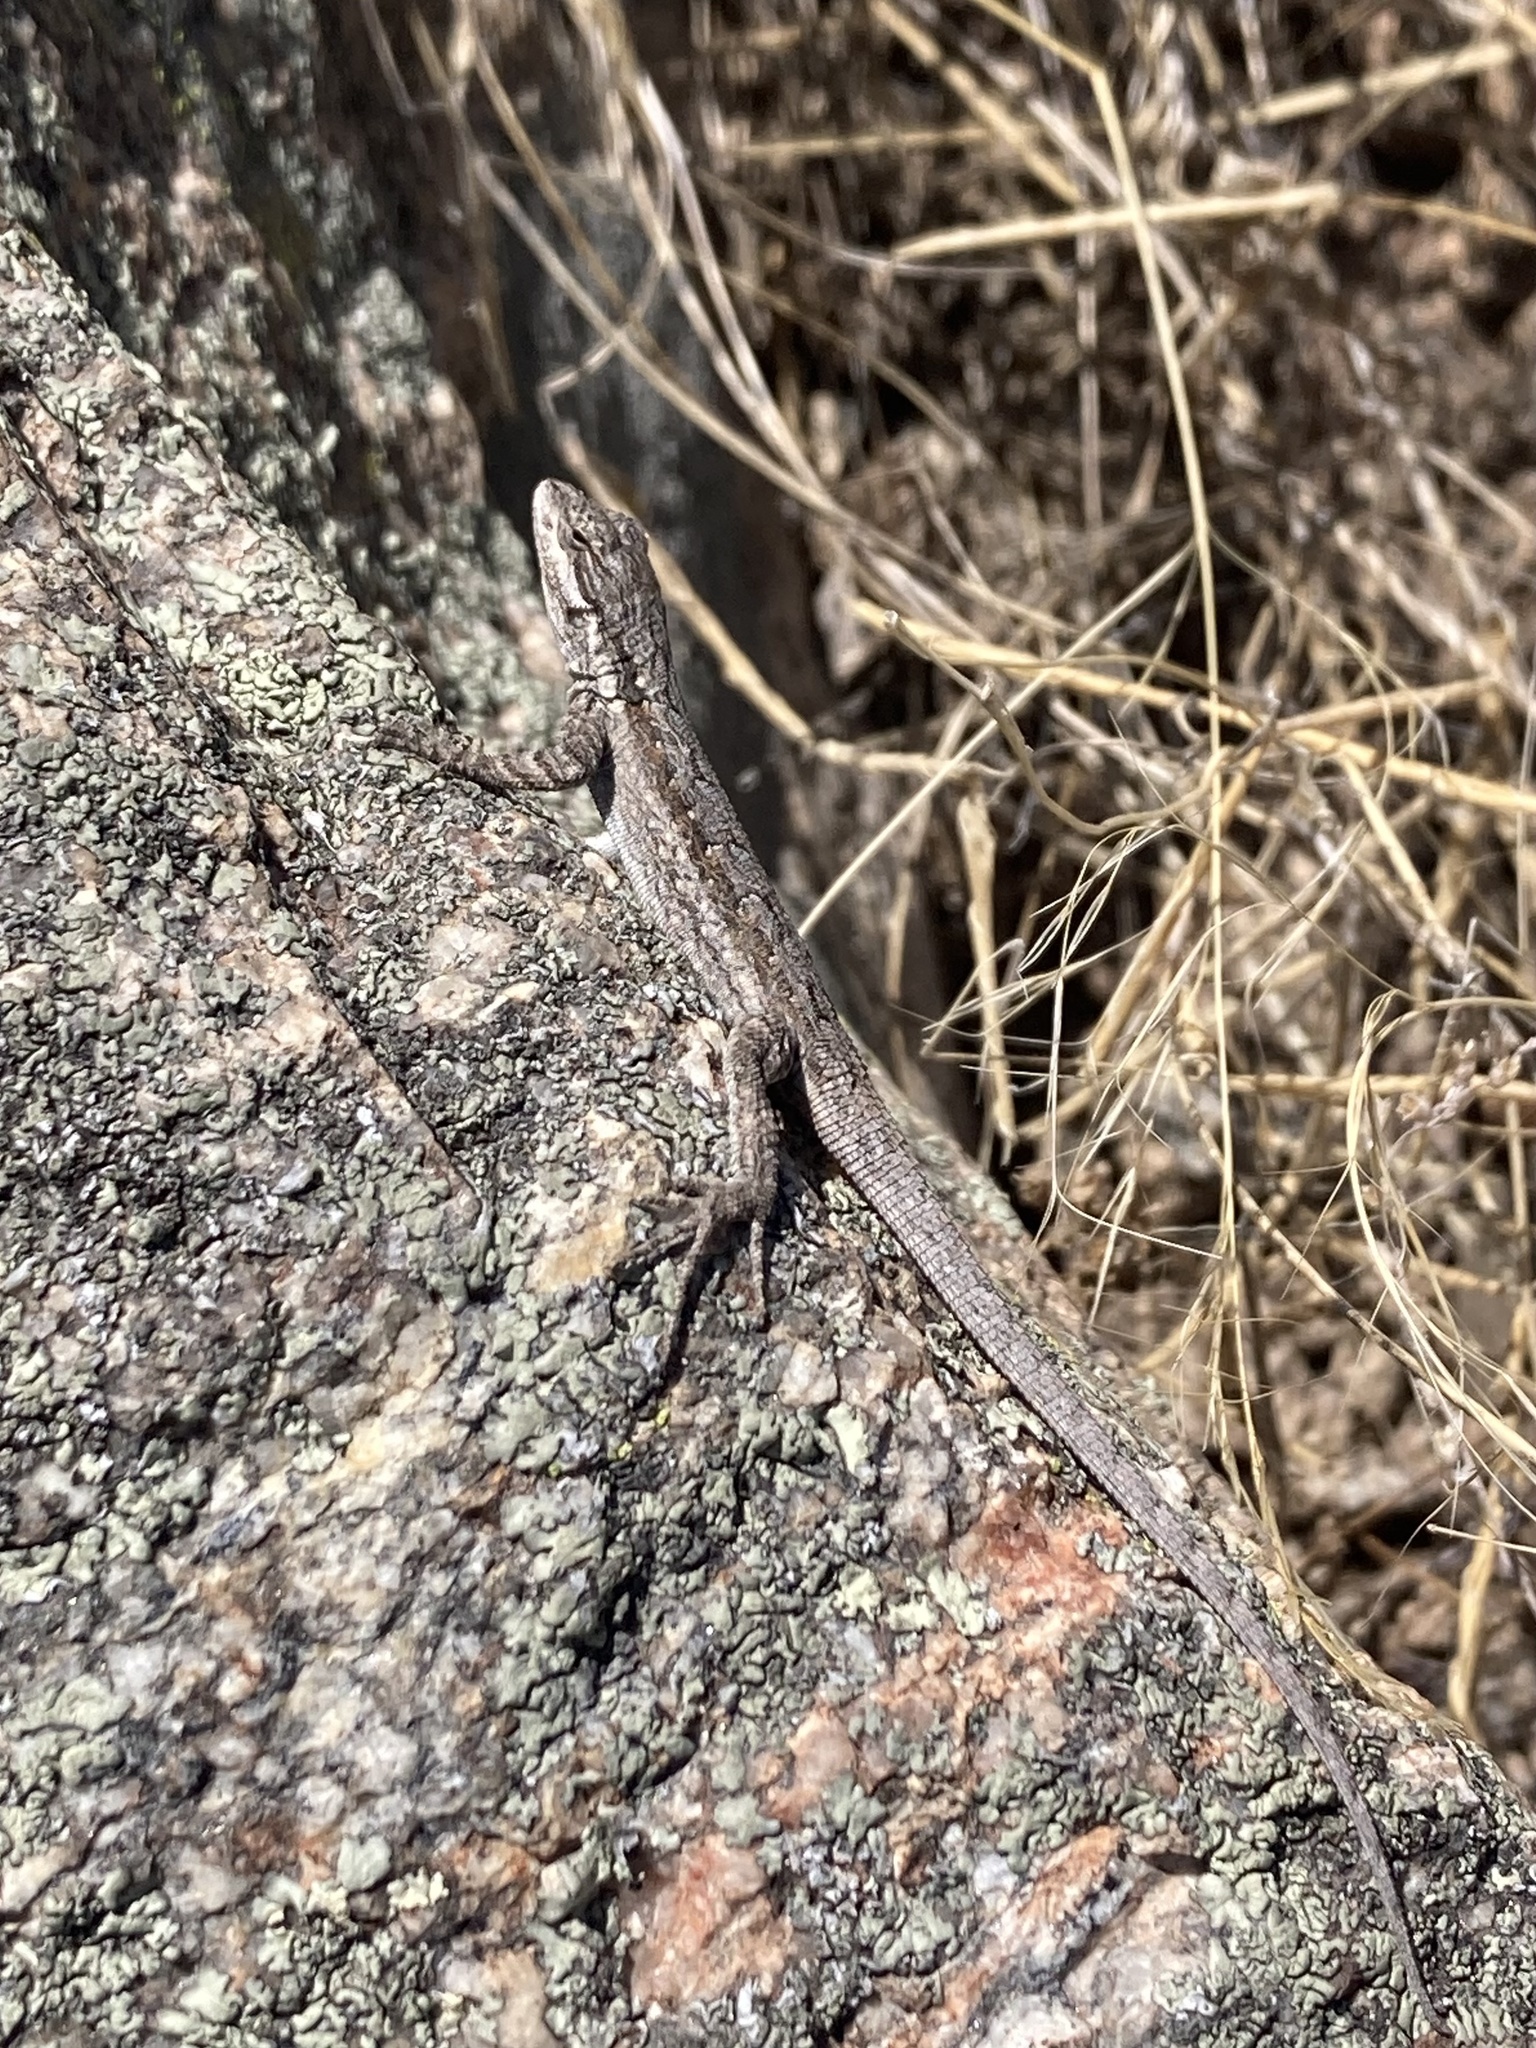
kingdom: Animalia
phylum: Chordata
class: Squamata
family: Phrynosomatidae
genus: Urosaurus
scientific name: Urosaurus ornatus
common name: Ornate tree lizard
